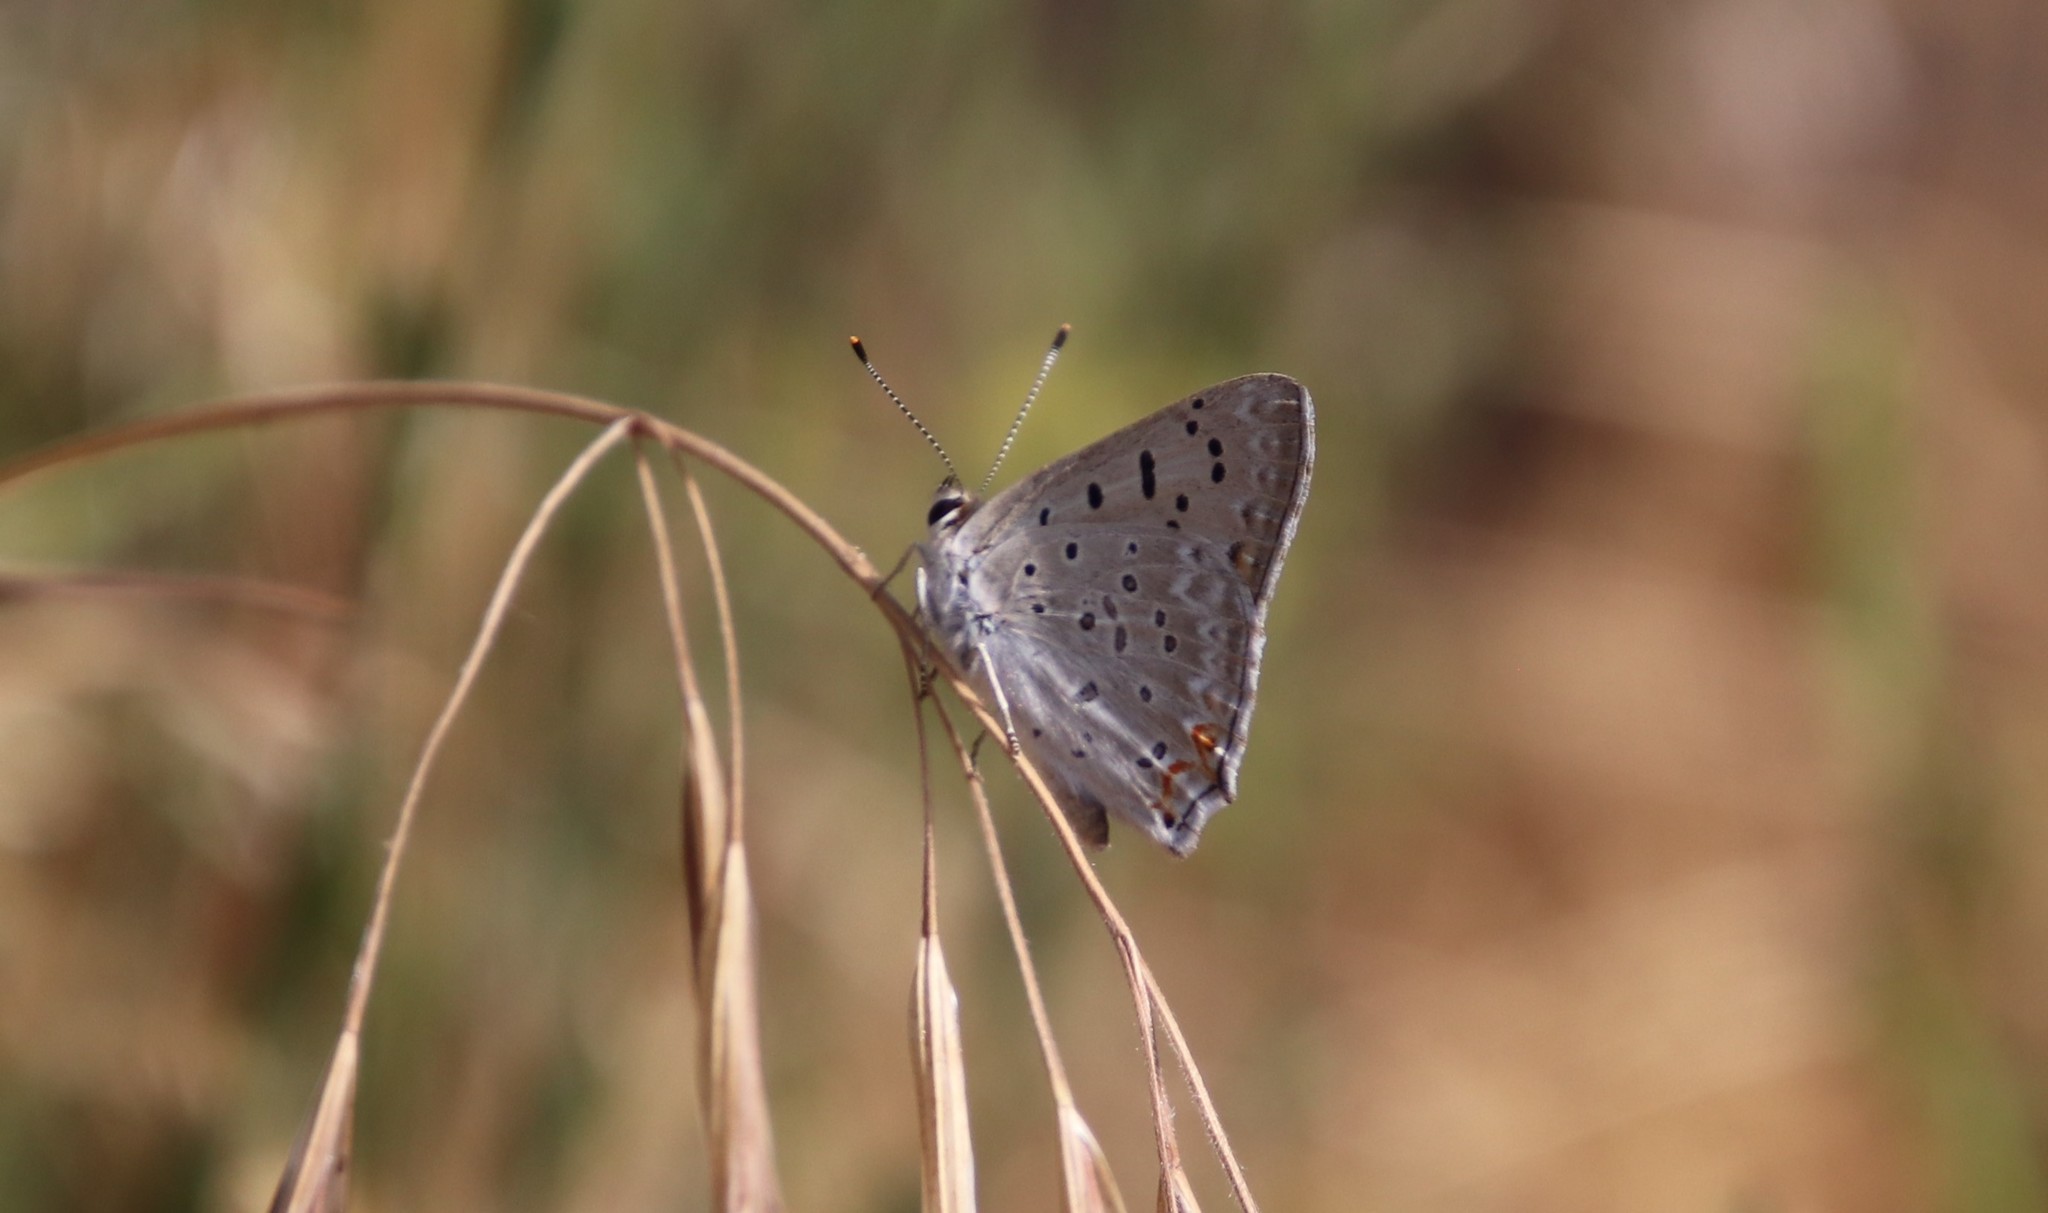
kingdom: Animalia
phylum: Arthropoda
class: Insecta
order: Lepidoptera
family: Lycaenidae
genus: Tharsalea
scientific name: Tharsalea xanthoides
